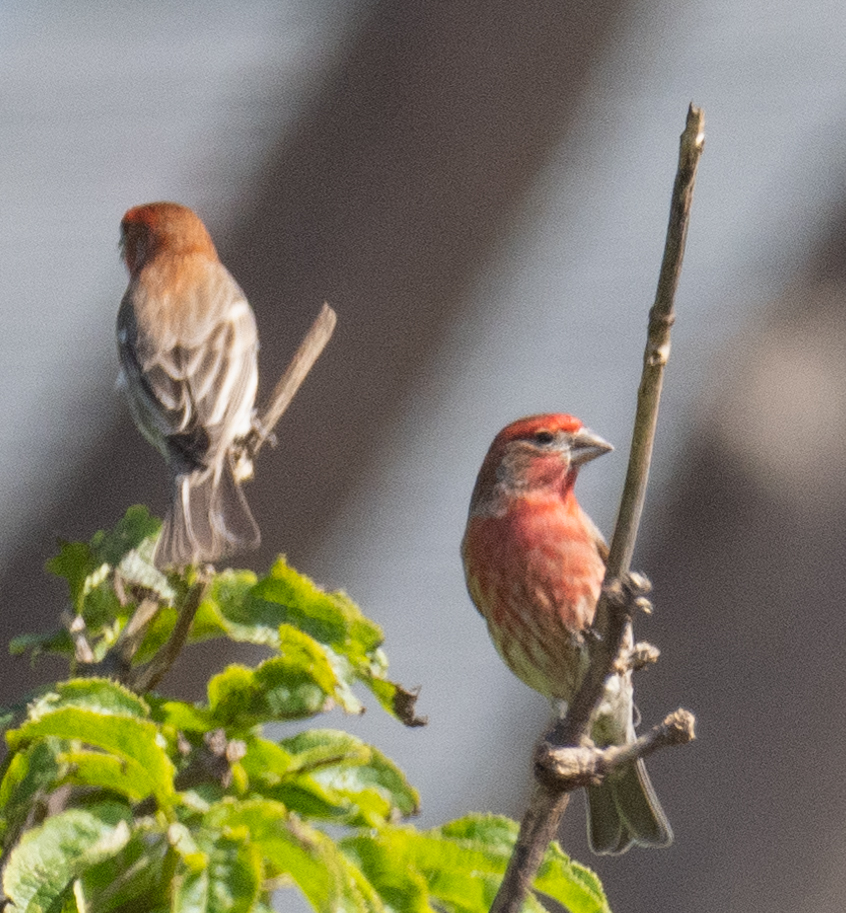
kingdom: Animalia
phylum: Chordata
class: Aves
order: Passeriformes
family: Fringillidae
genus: Haemorhous
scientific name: Haemorhous mexicanus
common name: House finch
